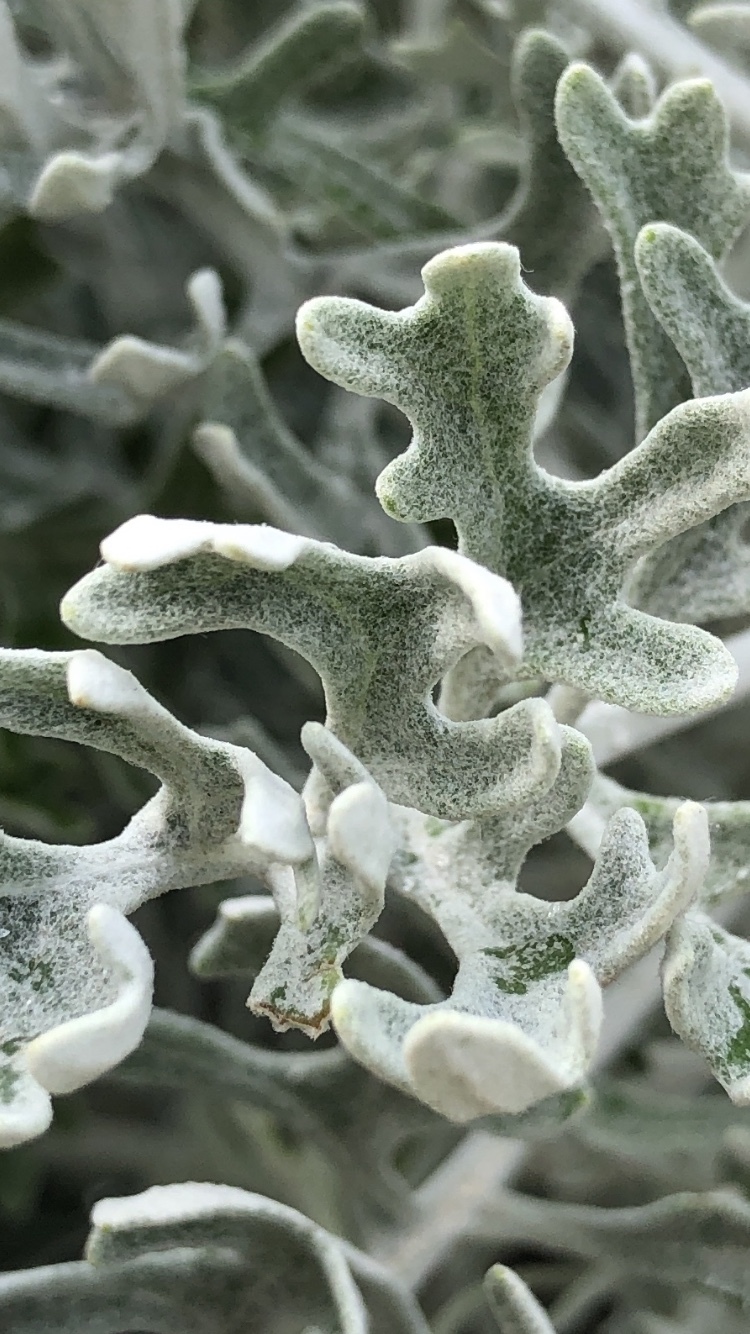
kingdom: Plantae
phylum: Tracheophyta
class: Magnoliopsida
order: Asterales
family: Asteraceae
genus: Jacobaea
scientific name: Jacobaea maritima
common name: Silver ragwort
